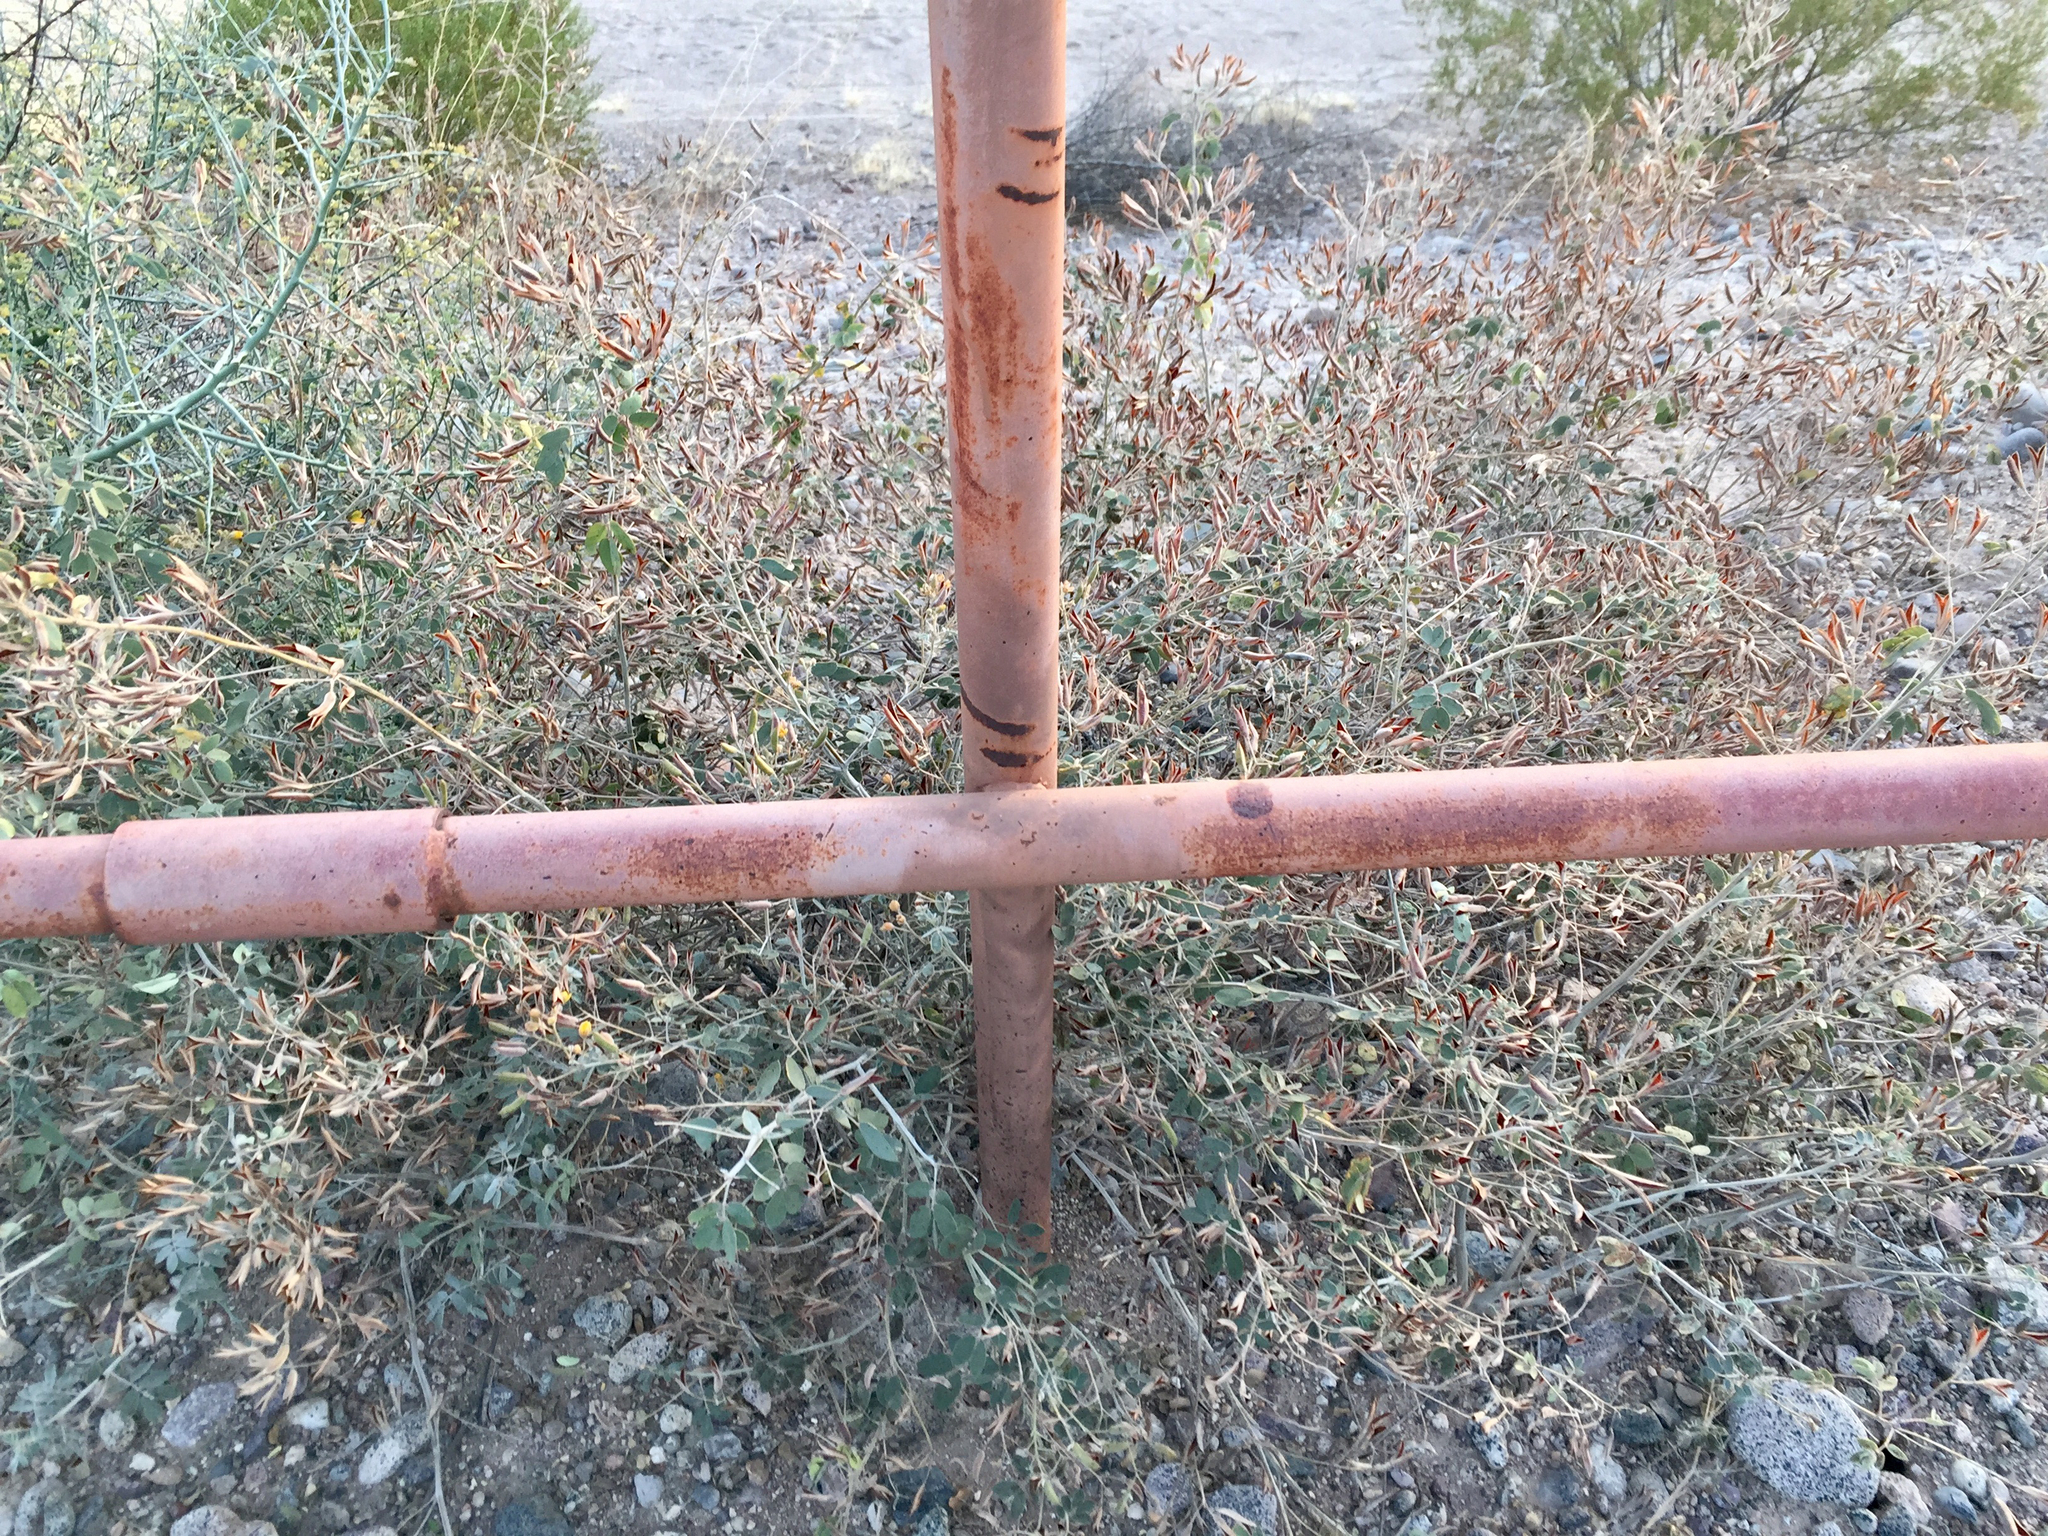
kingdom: Plantae
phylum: Tracheophyta
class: Magnoliopsida
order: Fabales
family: Fabaceae
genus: Senna
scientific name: Senna covesii
